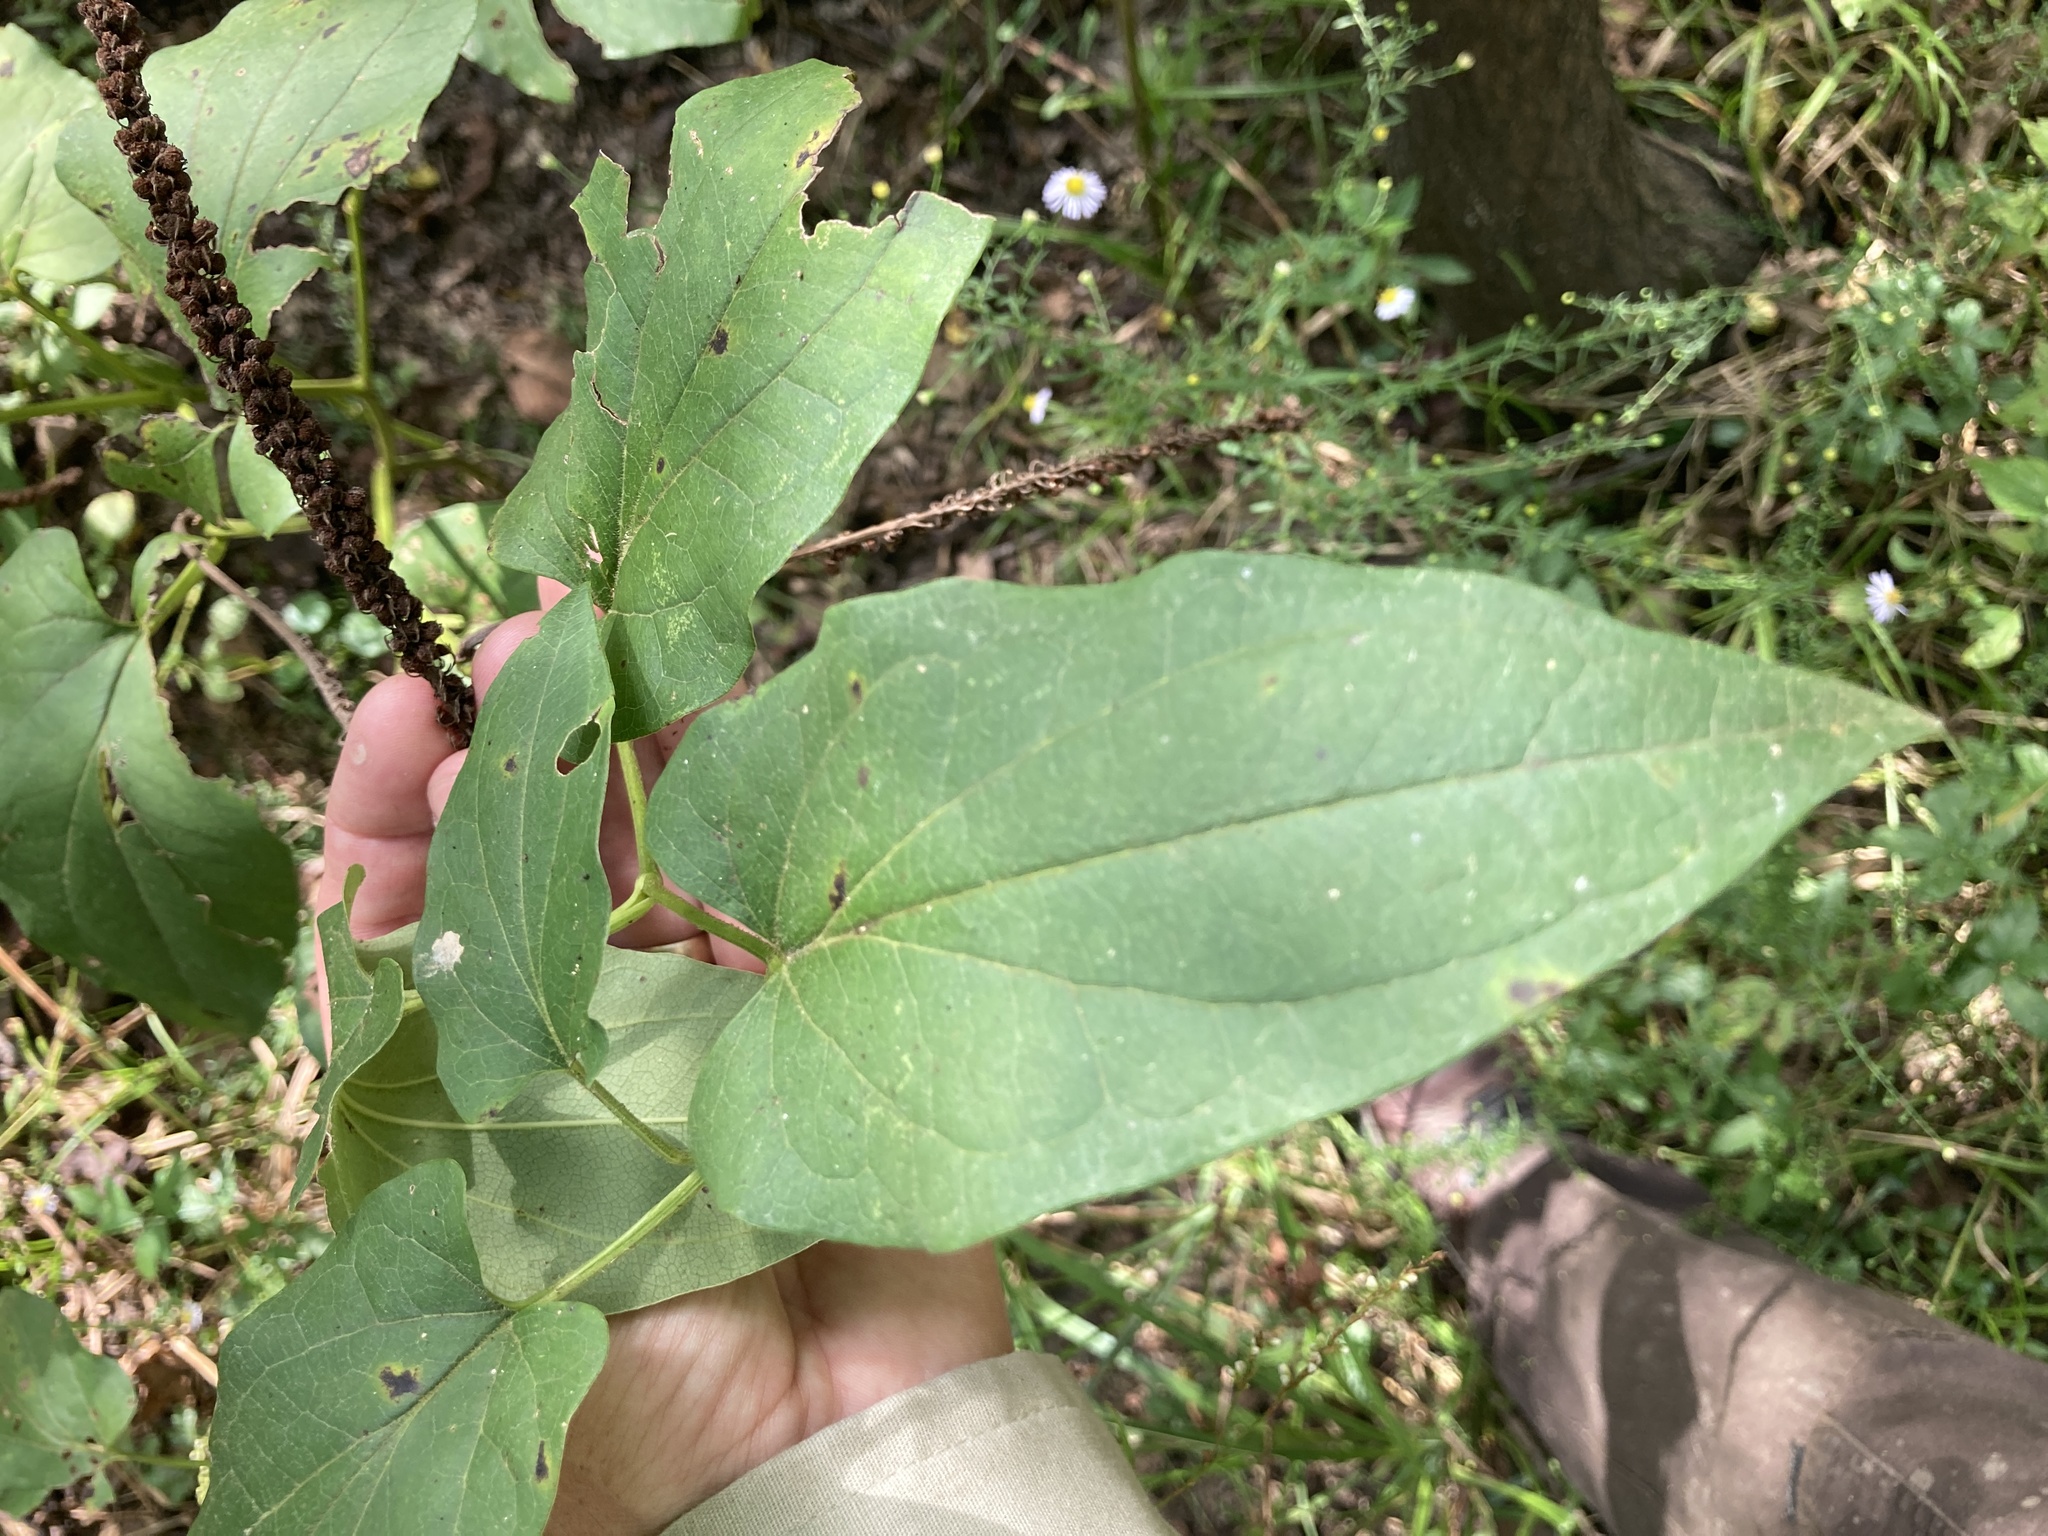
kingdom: Plantae
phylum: Tracheophyta
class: Magnoliopsida
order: Piperales
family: Saururaceae
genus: Saururus
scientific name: Saururus cernuus
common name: Lizard's-tail
